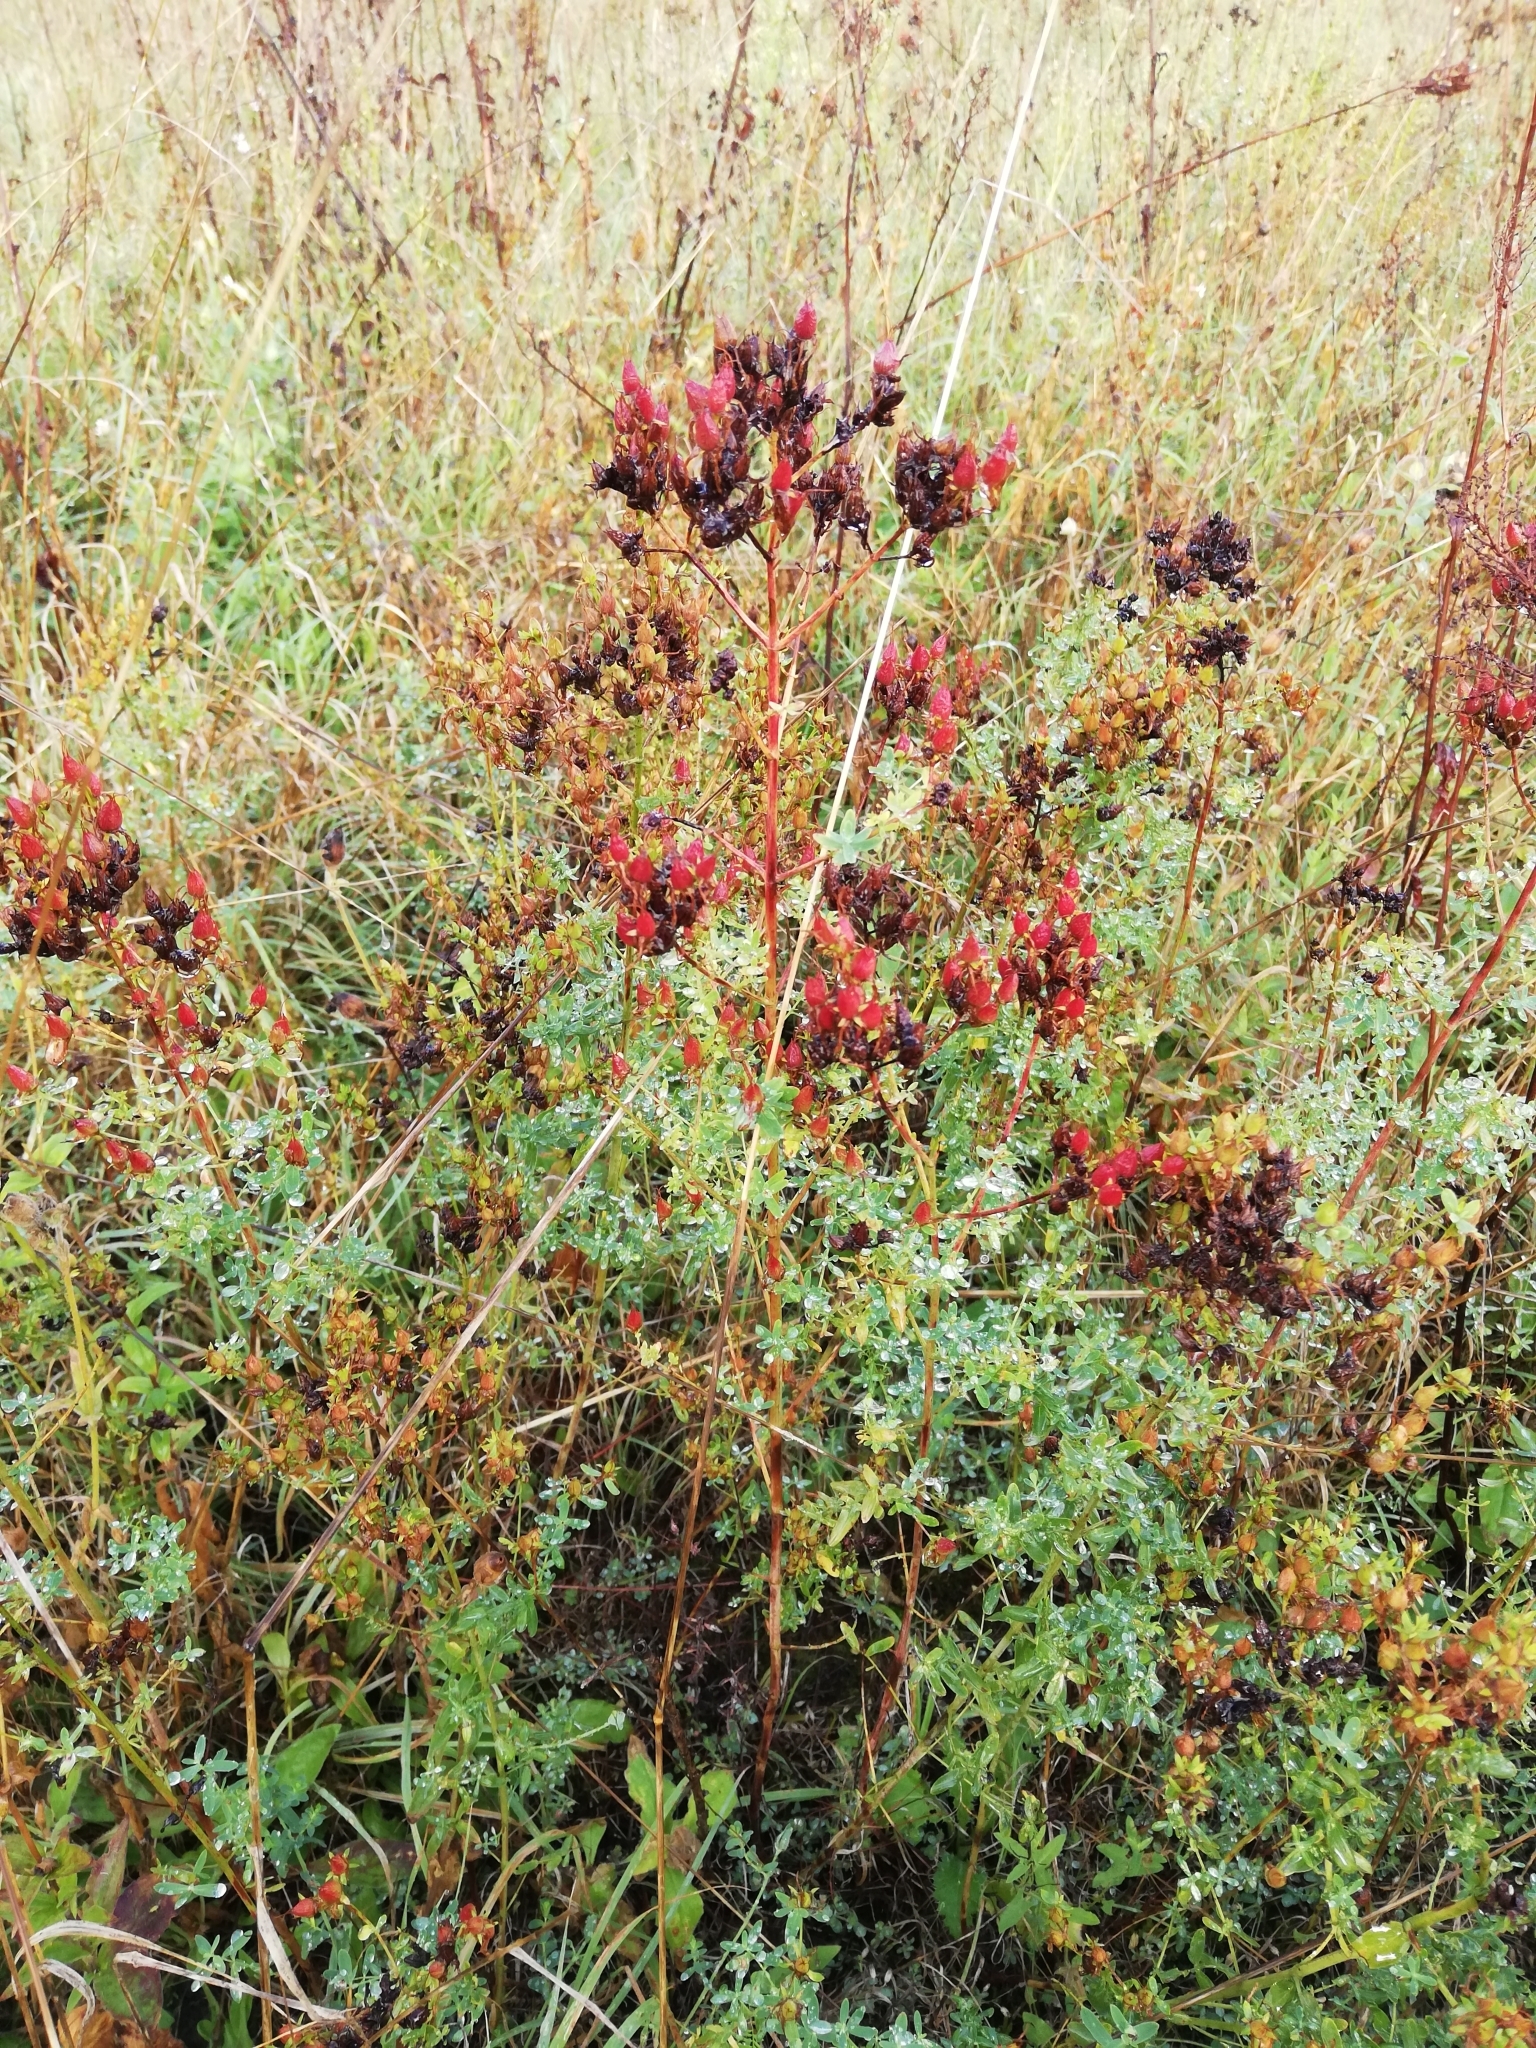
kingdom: Plantae
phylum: Tracheophyta
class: Magnoliopsida
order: Malpighiales
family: Hypericaceae
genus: Hypericum
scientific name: Hypericum perforatum
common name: Common st. johnswort
